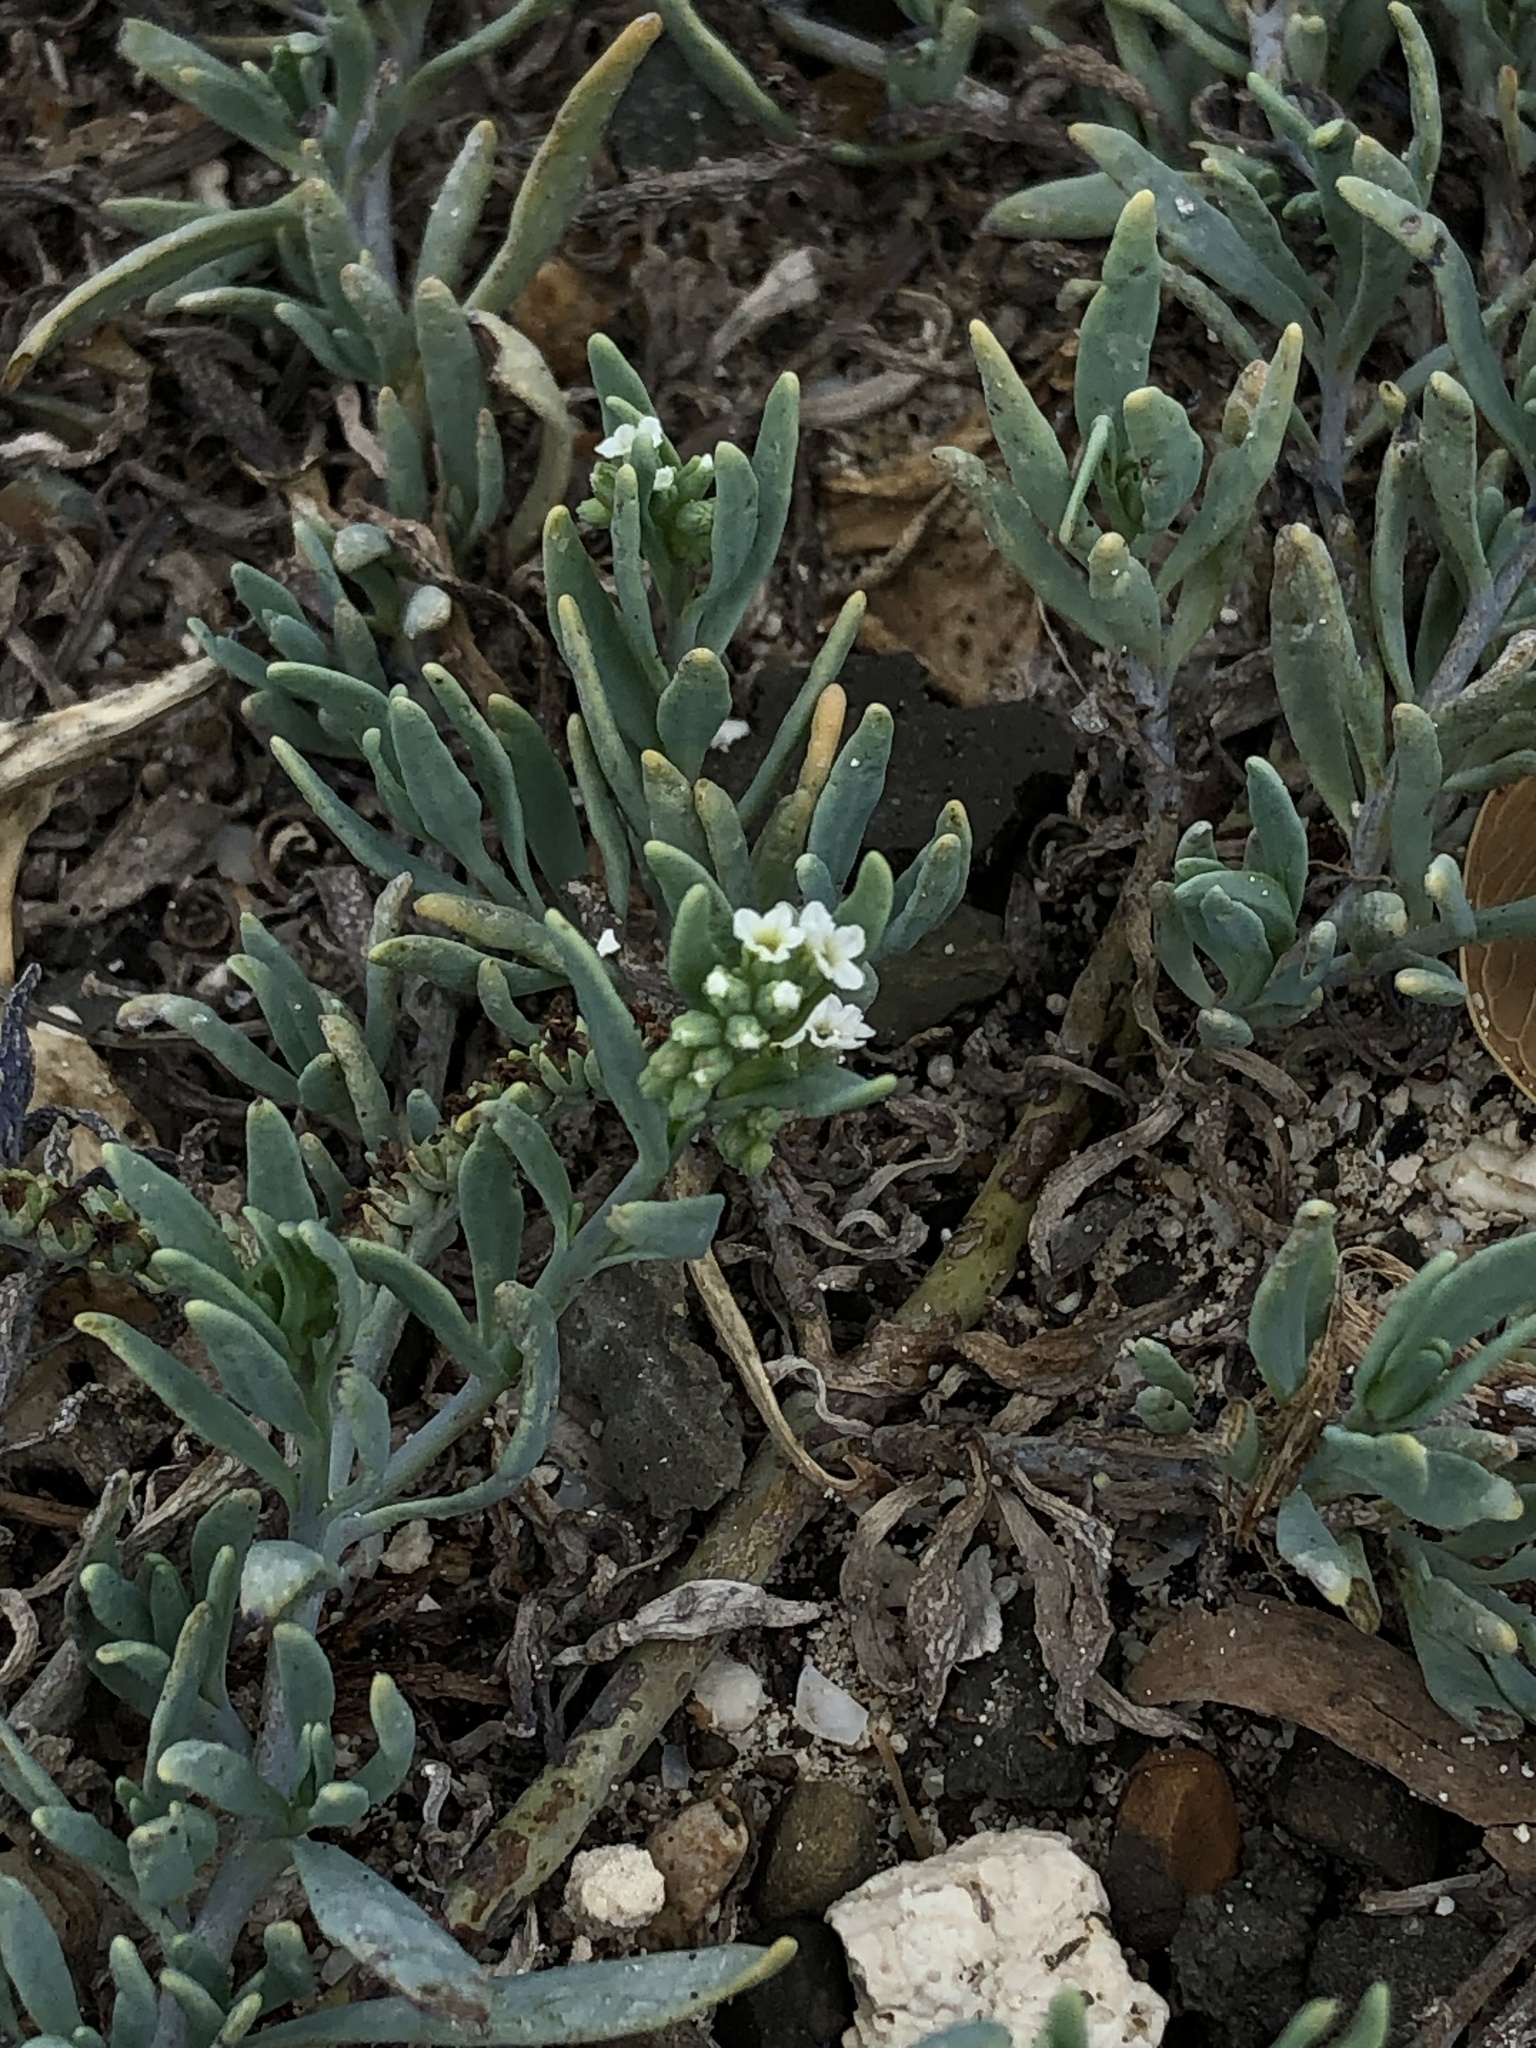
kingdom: Plantae
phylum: Tracheophyta
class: Magnoliopsida
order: Boraginales
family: Heliotropiaceae
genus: Heliotropium
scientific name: Heliotropium curassavicum
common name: Seaside heliotrope
